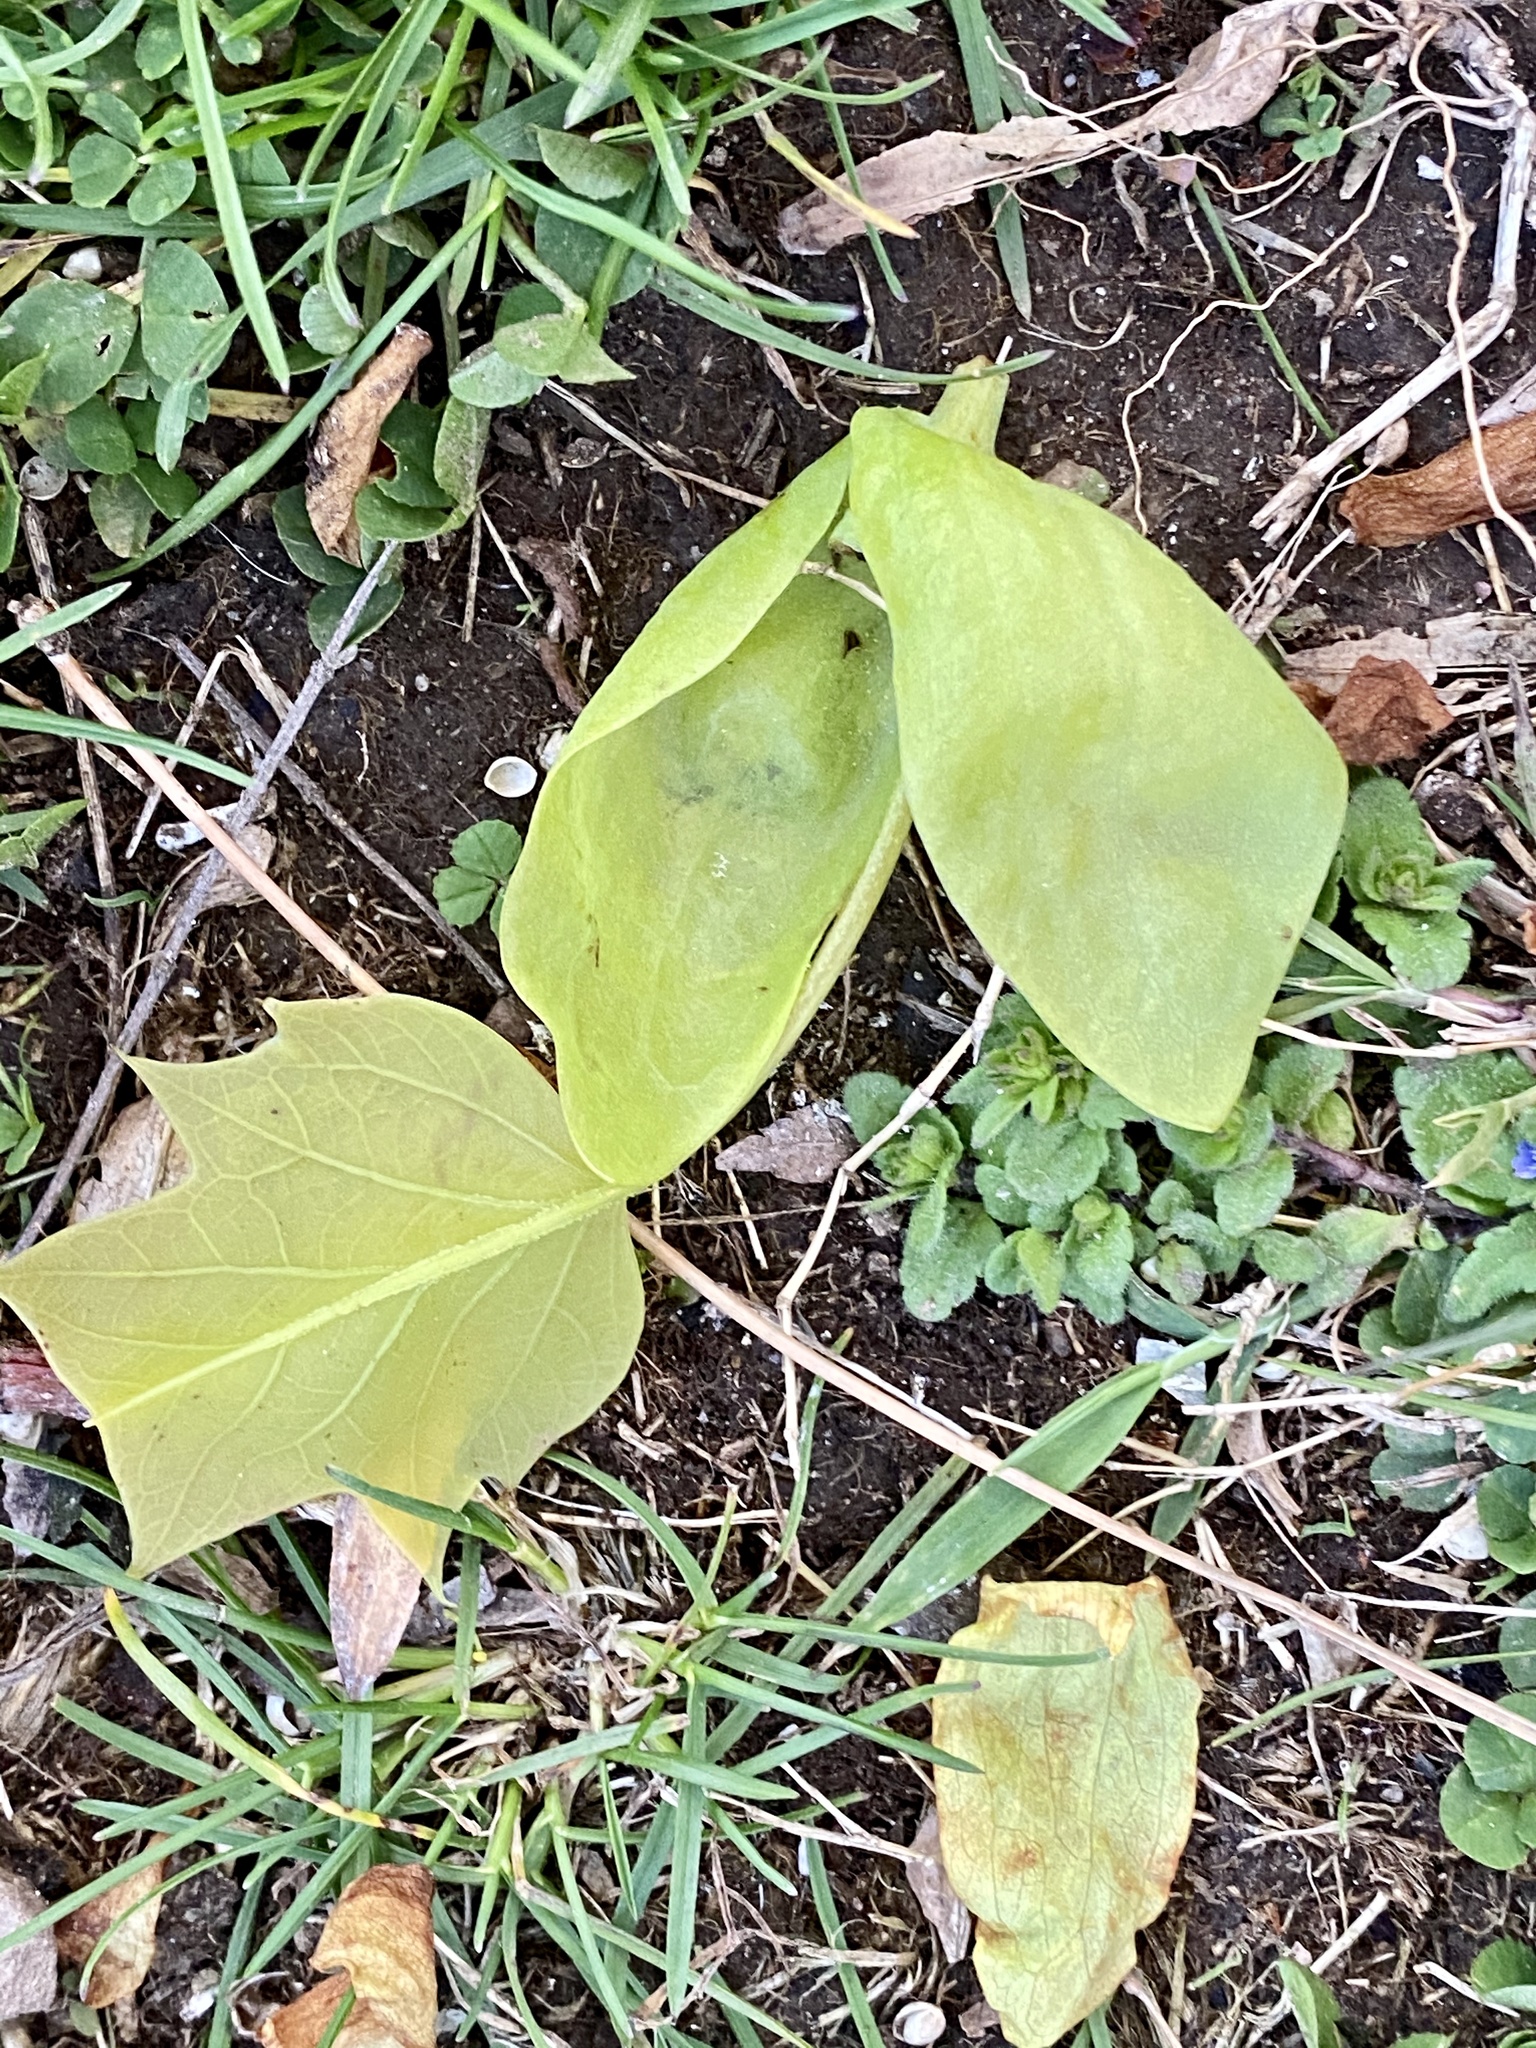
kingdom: Plantae
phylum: Tracheophyta
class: Magnoliopsida
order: Magnoliales
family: Magnoliaceae
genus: Liriodendron
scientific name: Liriodendron tulipifera
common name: Tulip tree
